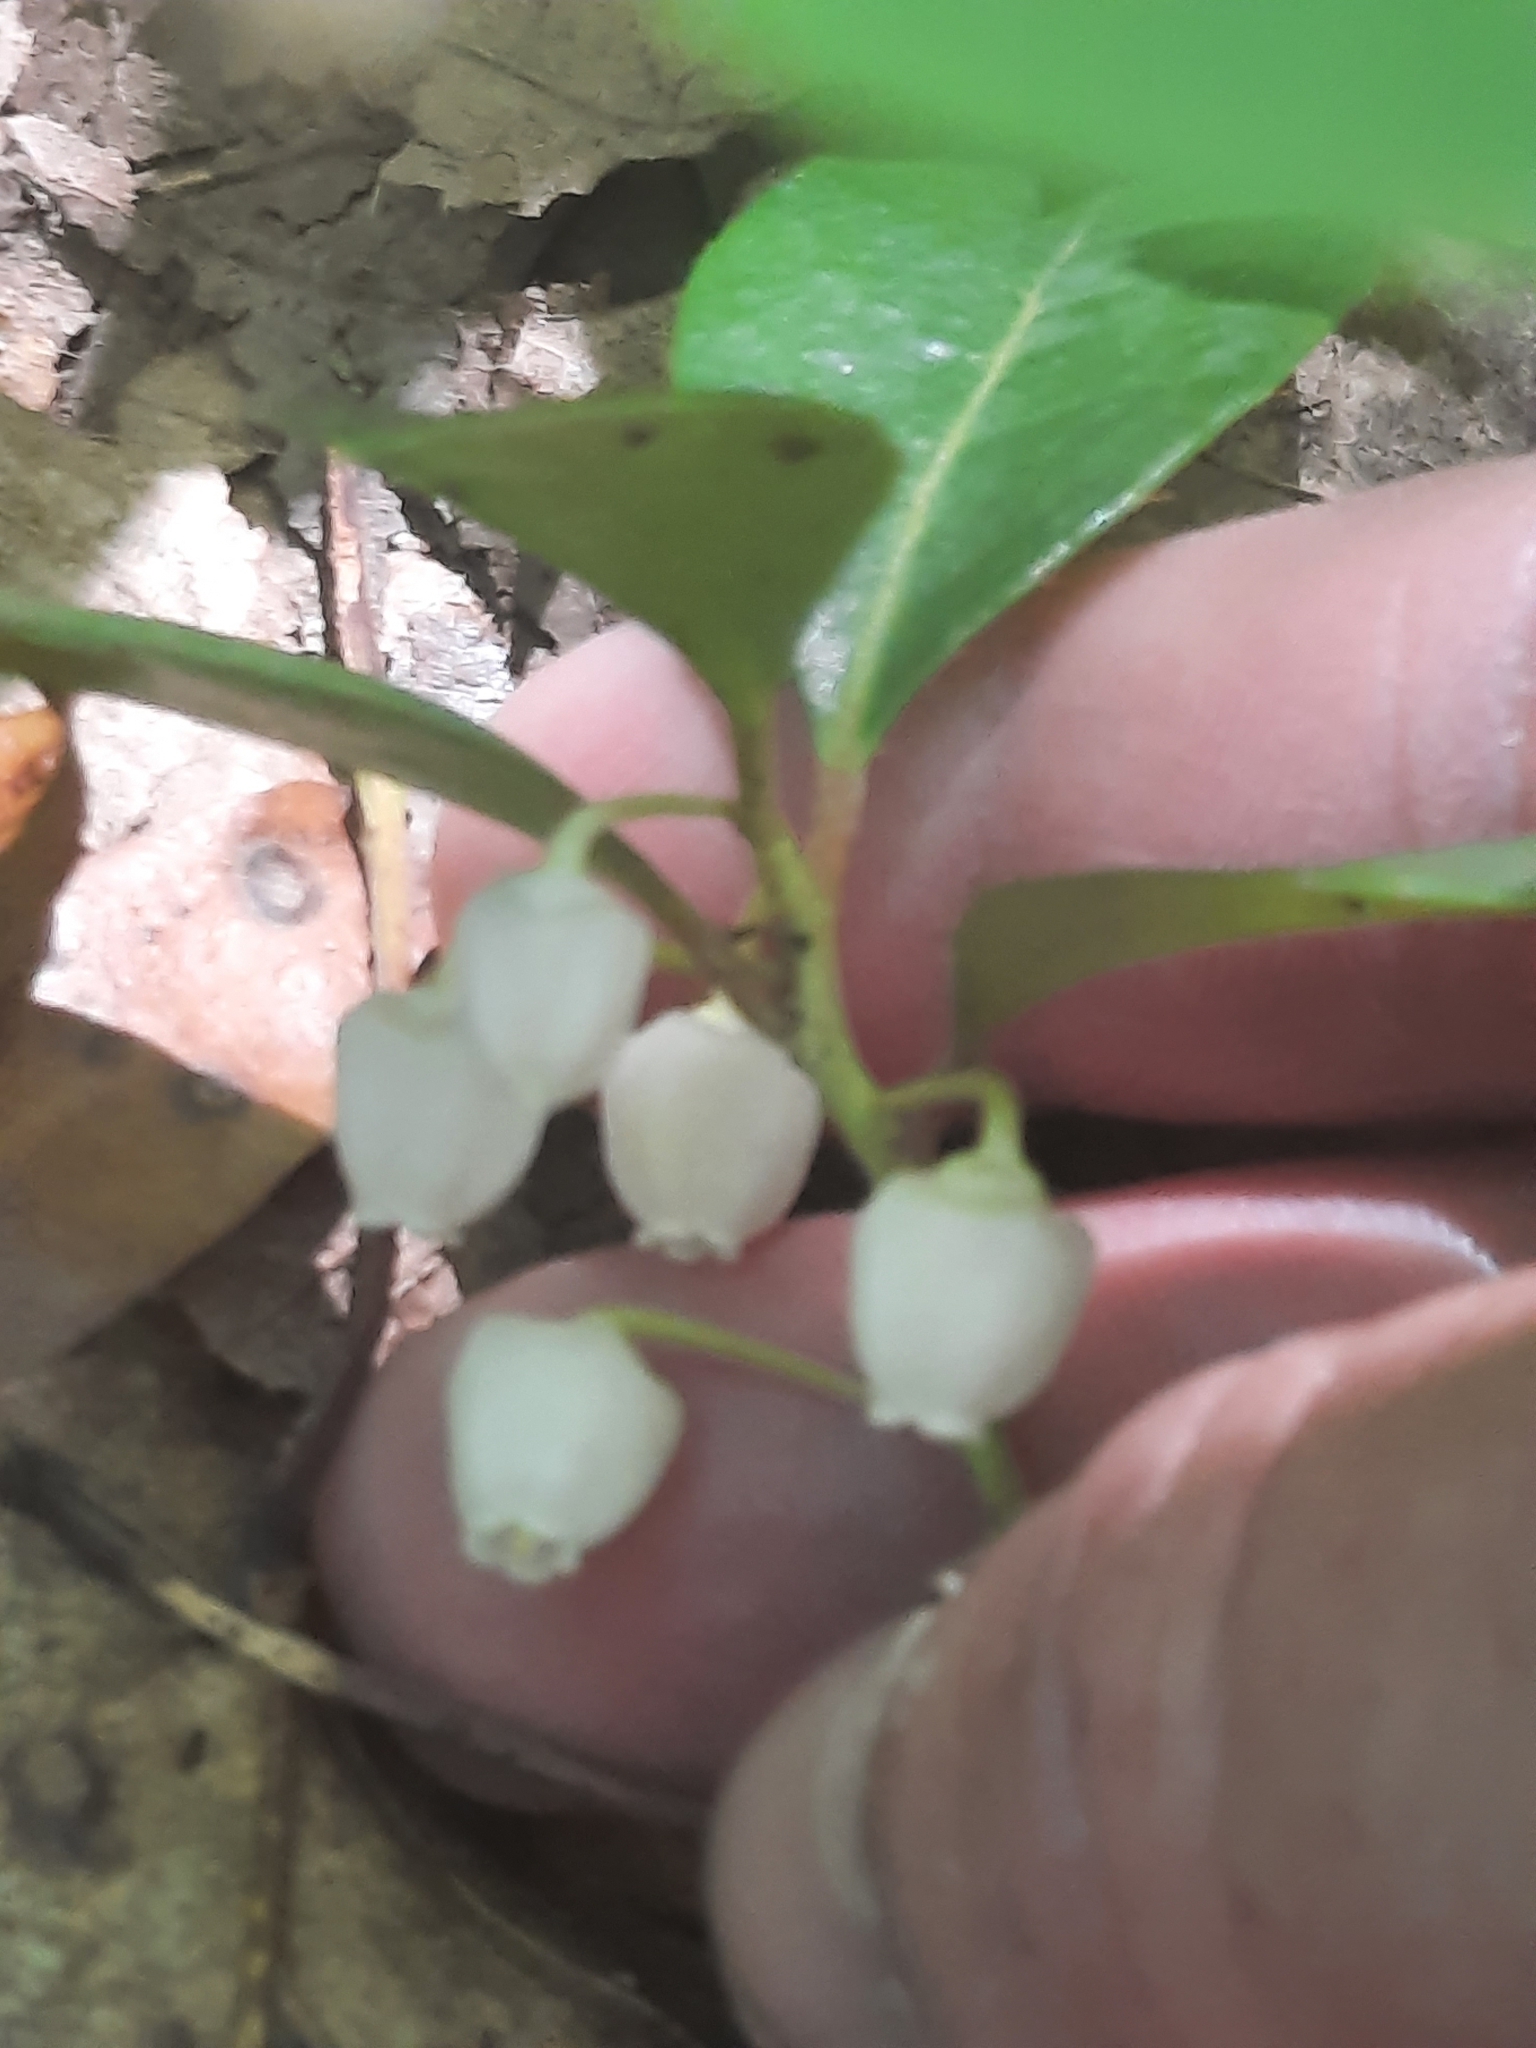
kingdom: Plantae
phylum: Tracheophyta
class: Magnoliopsida
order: Ericales
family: Ericaceae
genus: Gaultheria
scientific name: Gaultheria procumbens
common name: Checkerberry
